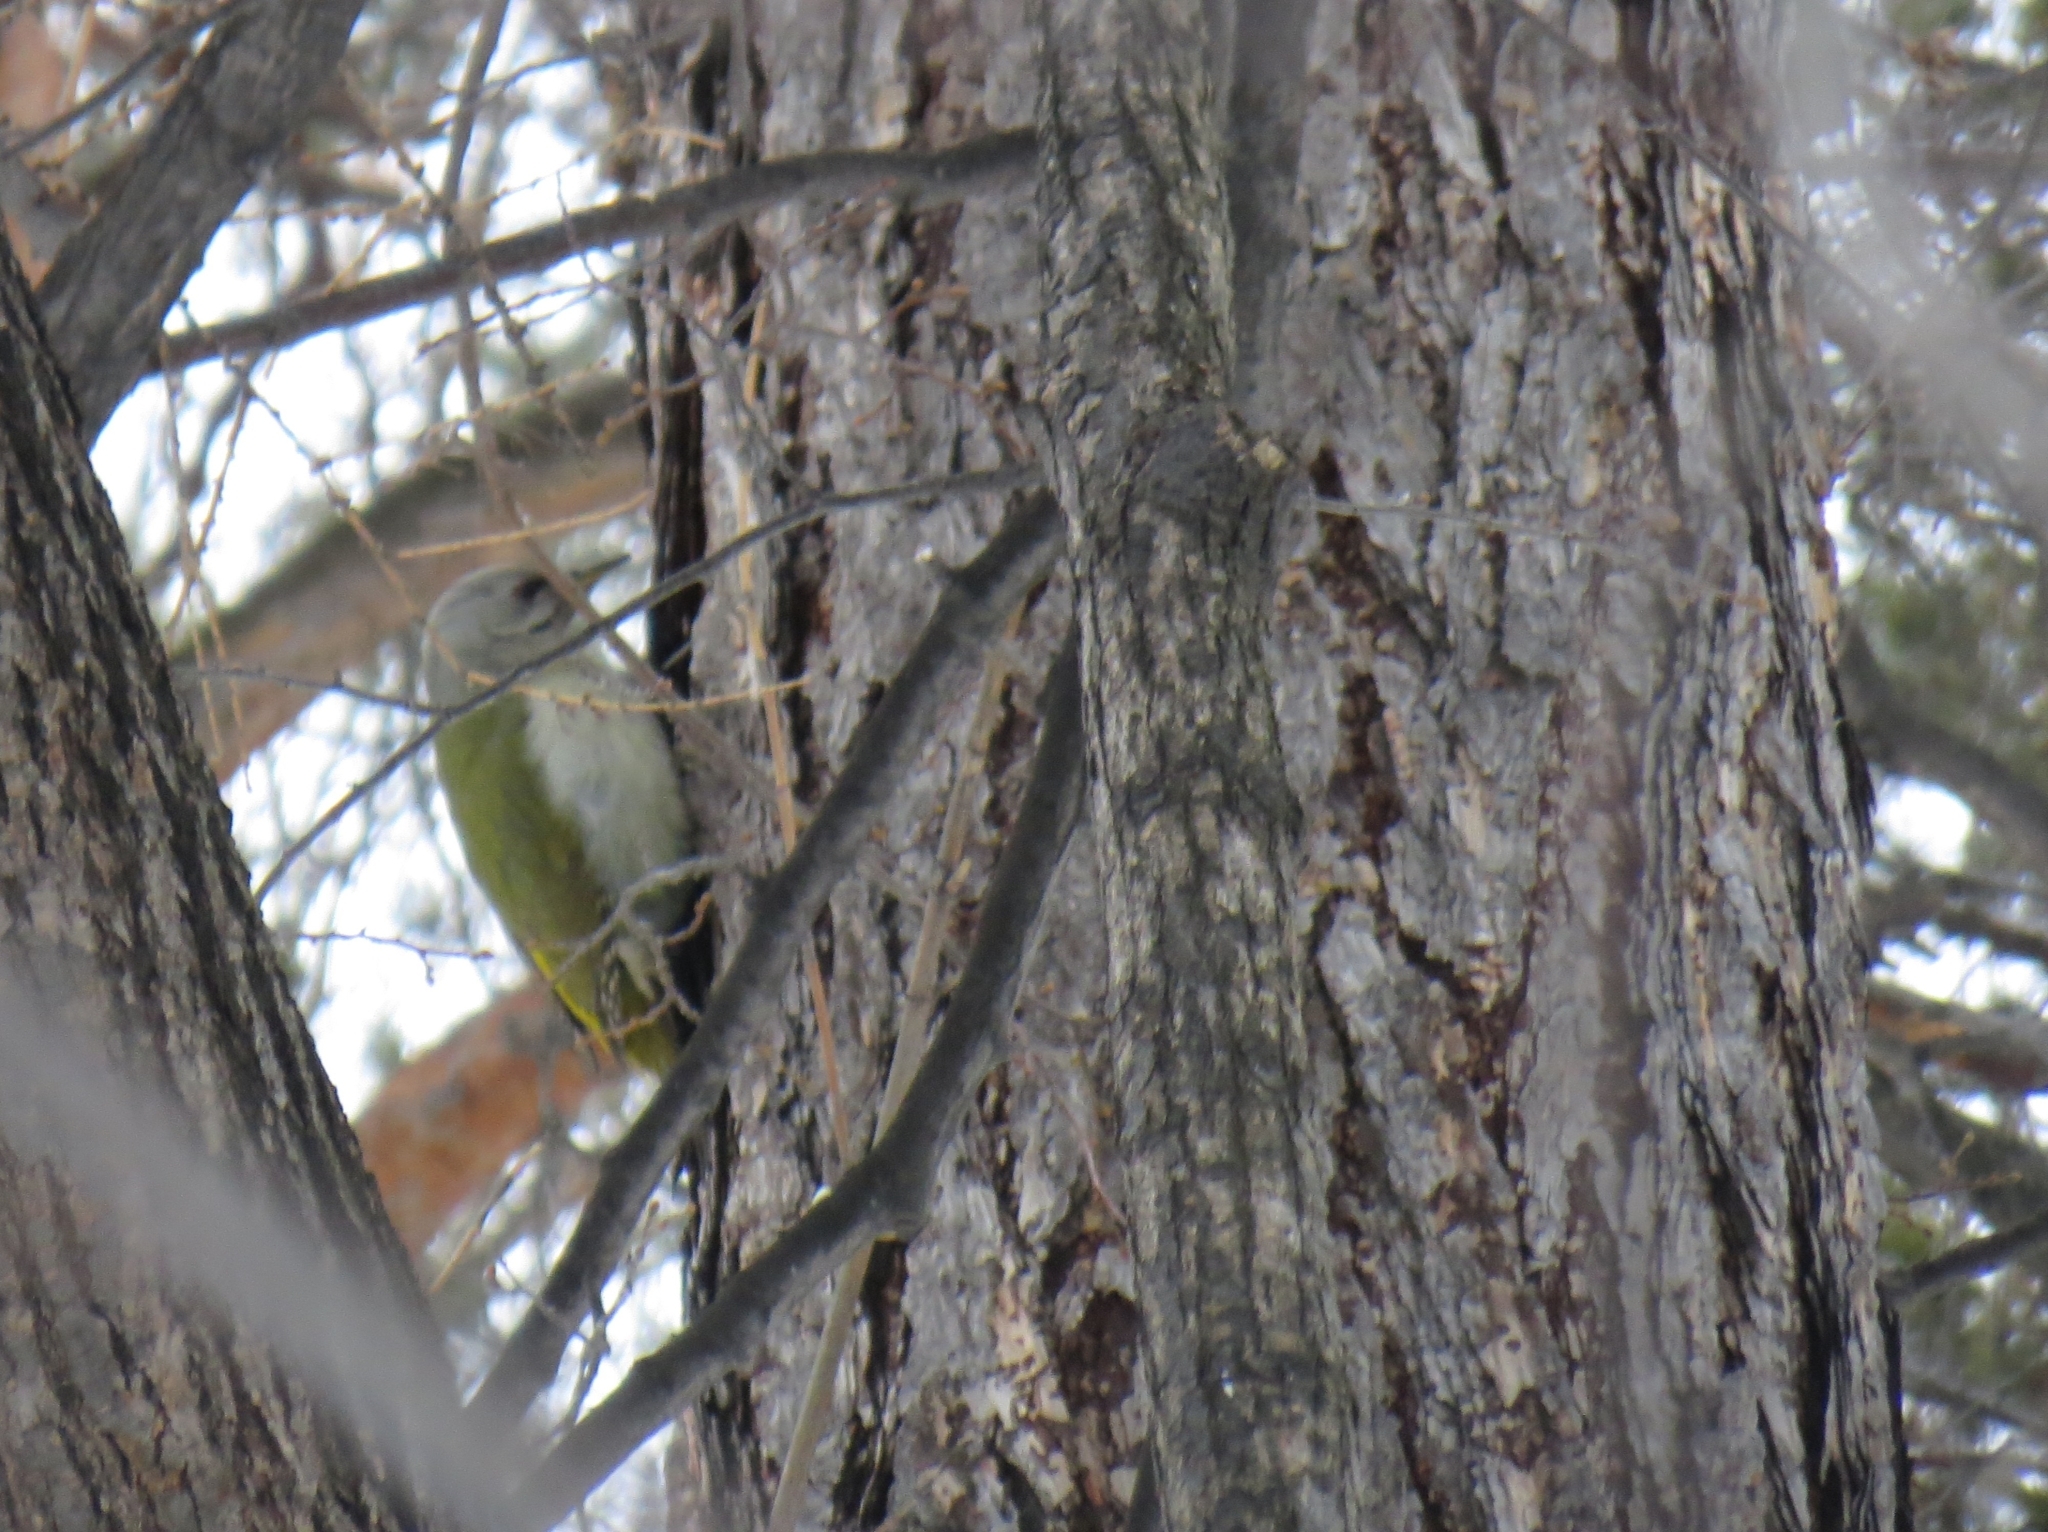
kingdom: Animalia
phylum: Chordata
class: Aves
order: Piciformes
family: Picidae
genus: Picus
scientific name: Picus canus
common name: Grey-headed woodpecker
